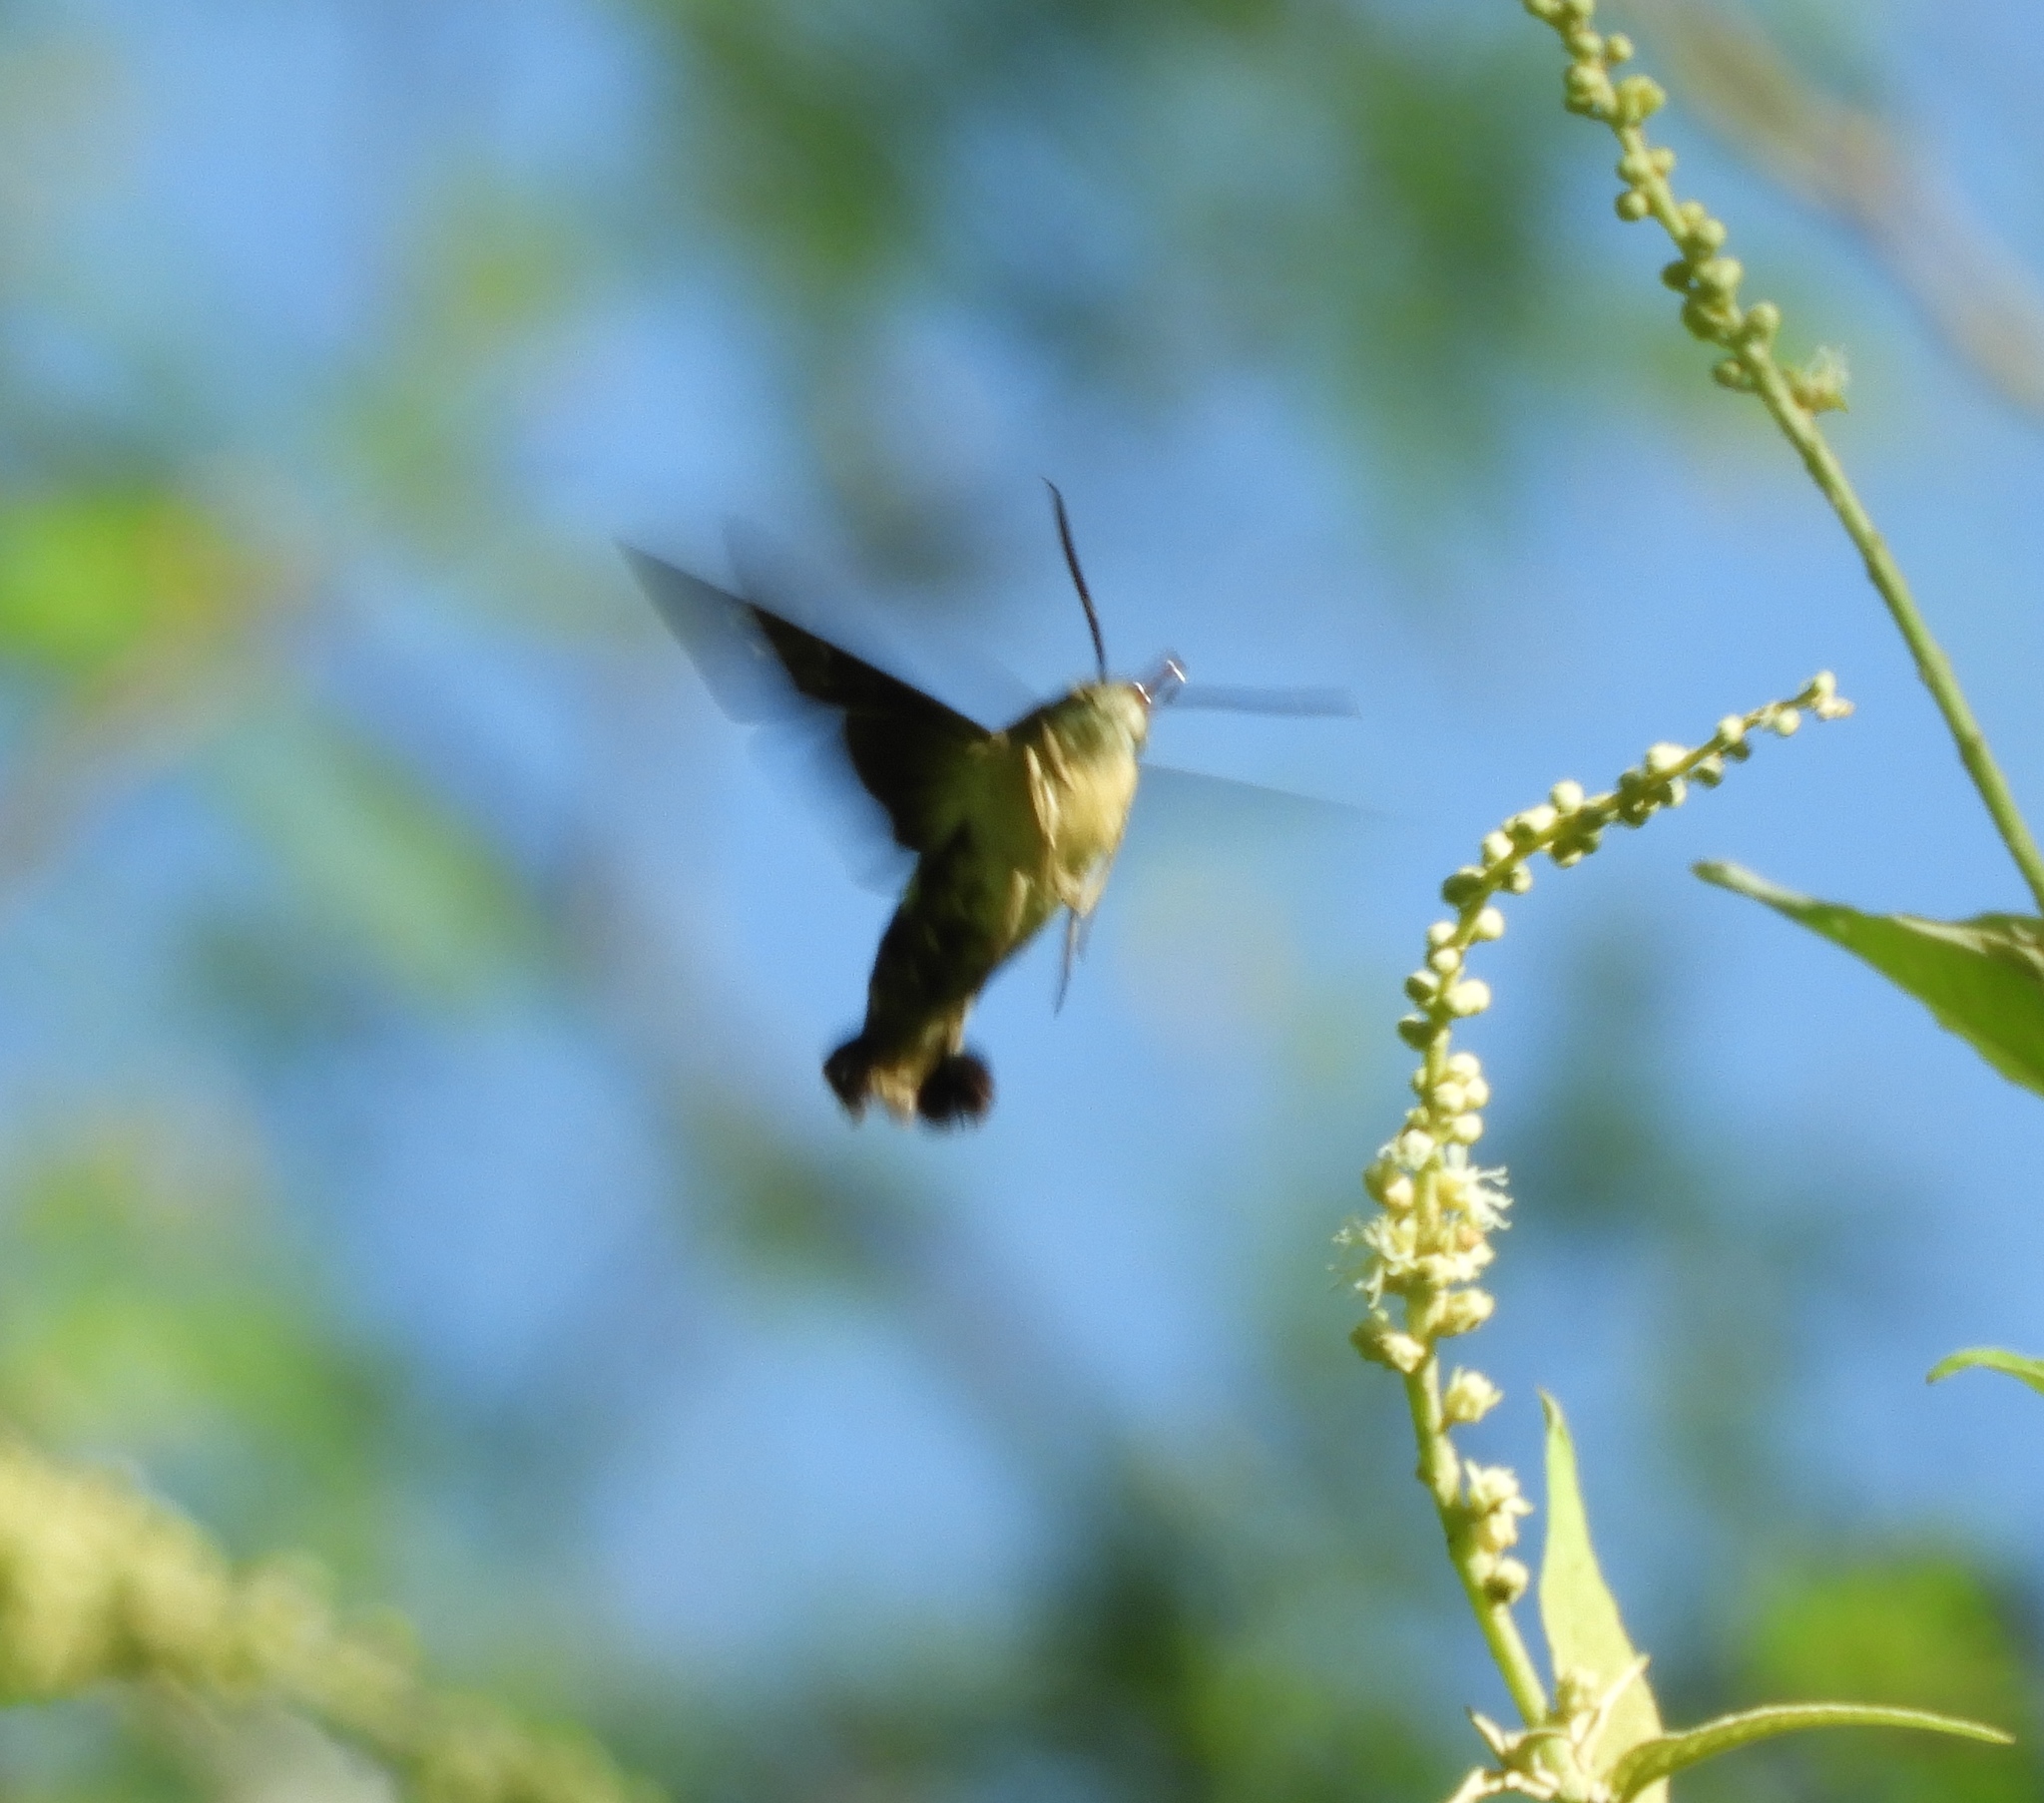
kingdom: Animalia
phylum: Arthropoda
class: Insecta
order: Lepidoptera
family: Sphingidae
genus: Aellopos
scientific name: Aellopos
